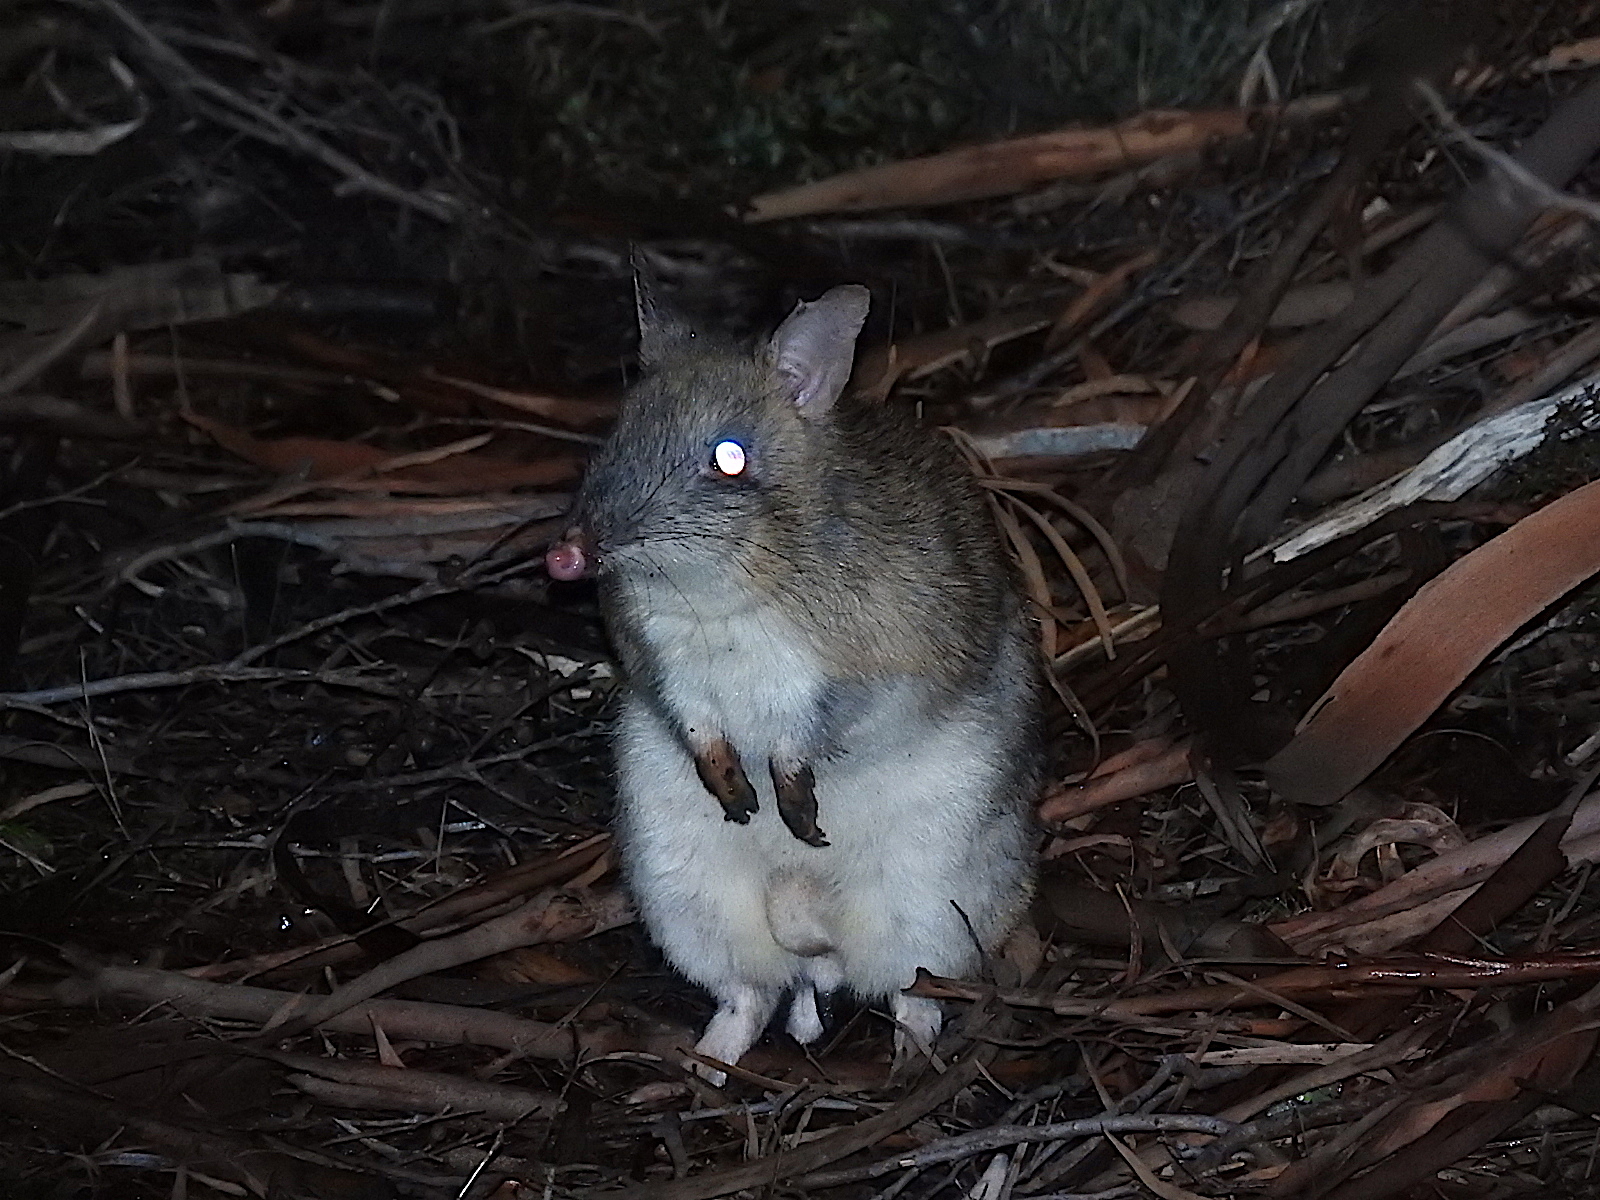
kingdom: Animalia
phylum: Chordata
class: Mammalia
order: Peramelemorphia
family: Peramelidae
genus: Perameles
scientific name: Perameles gunnii
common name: Eastern barred bandicoot
